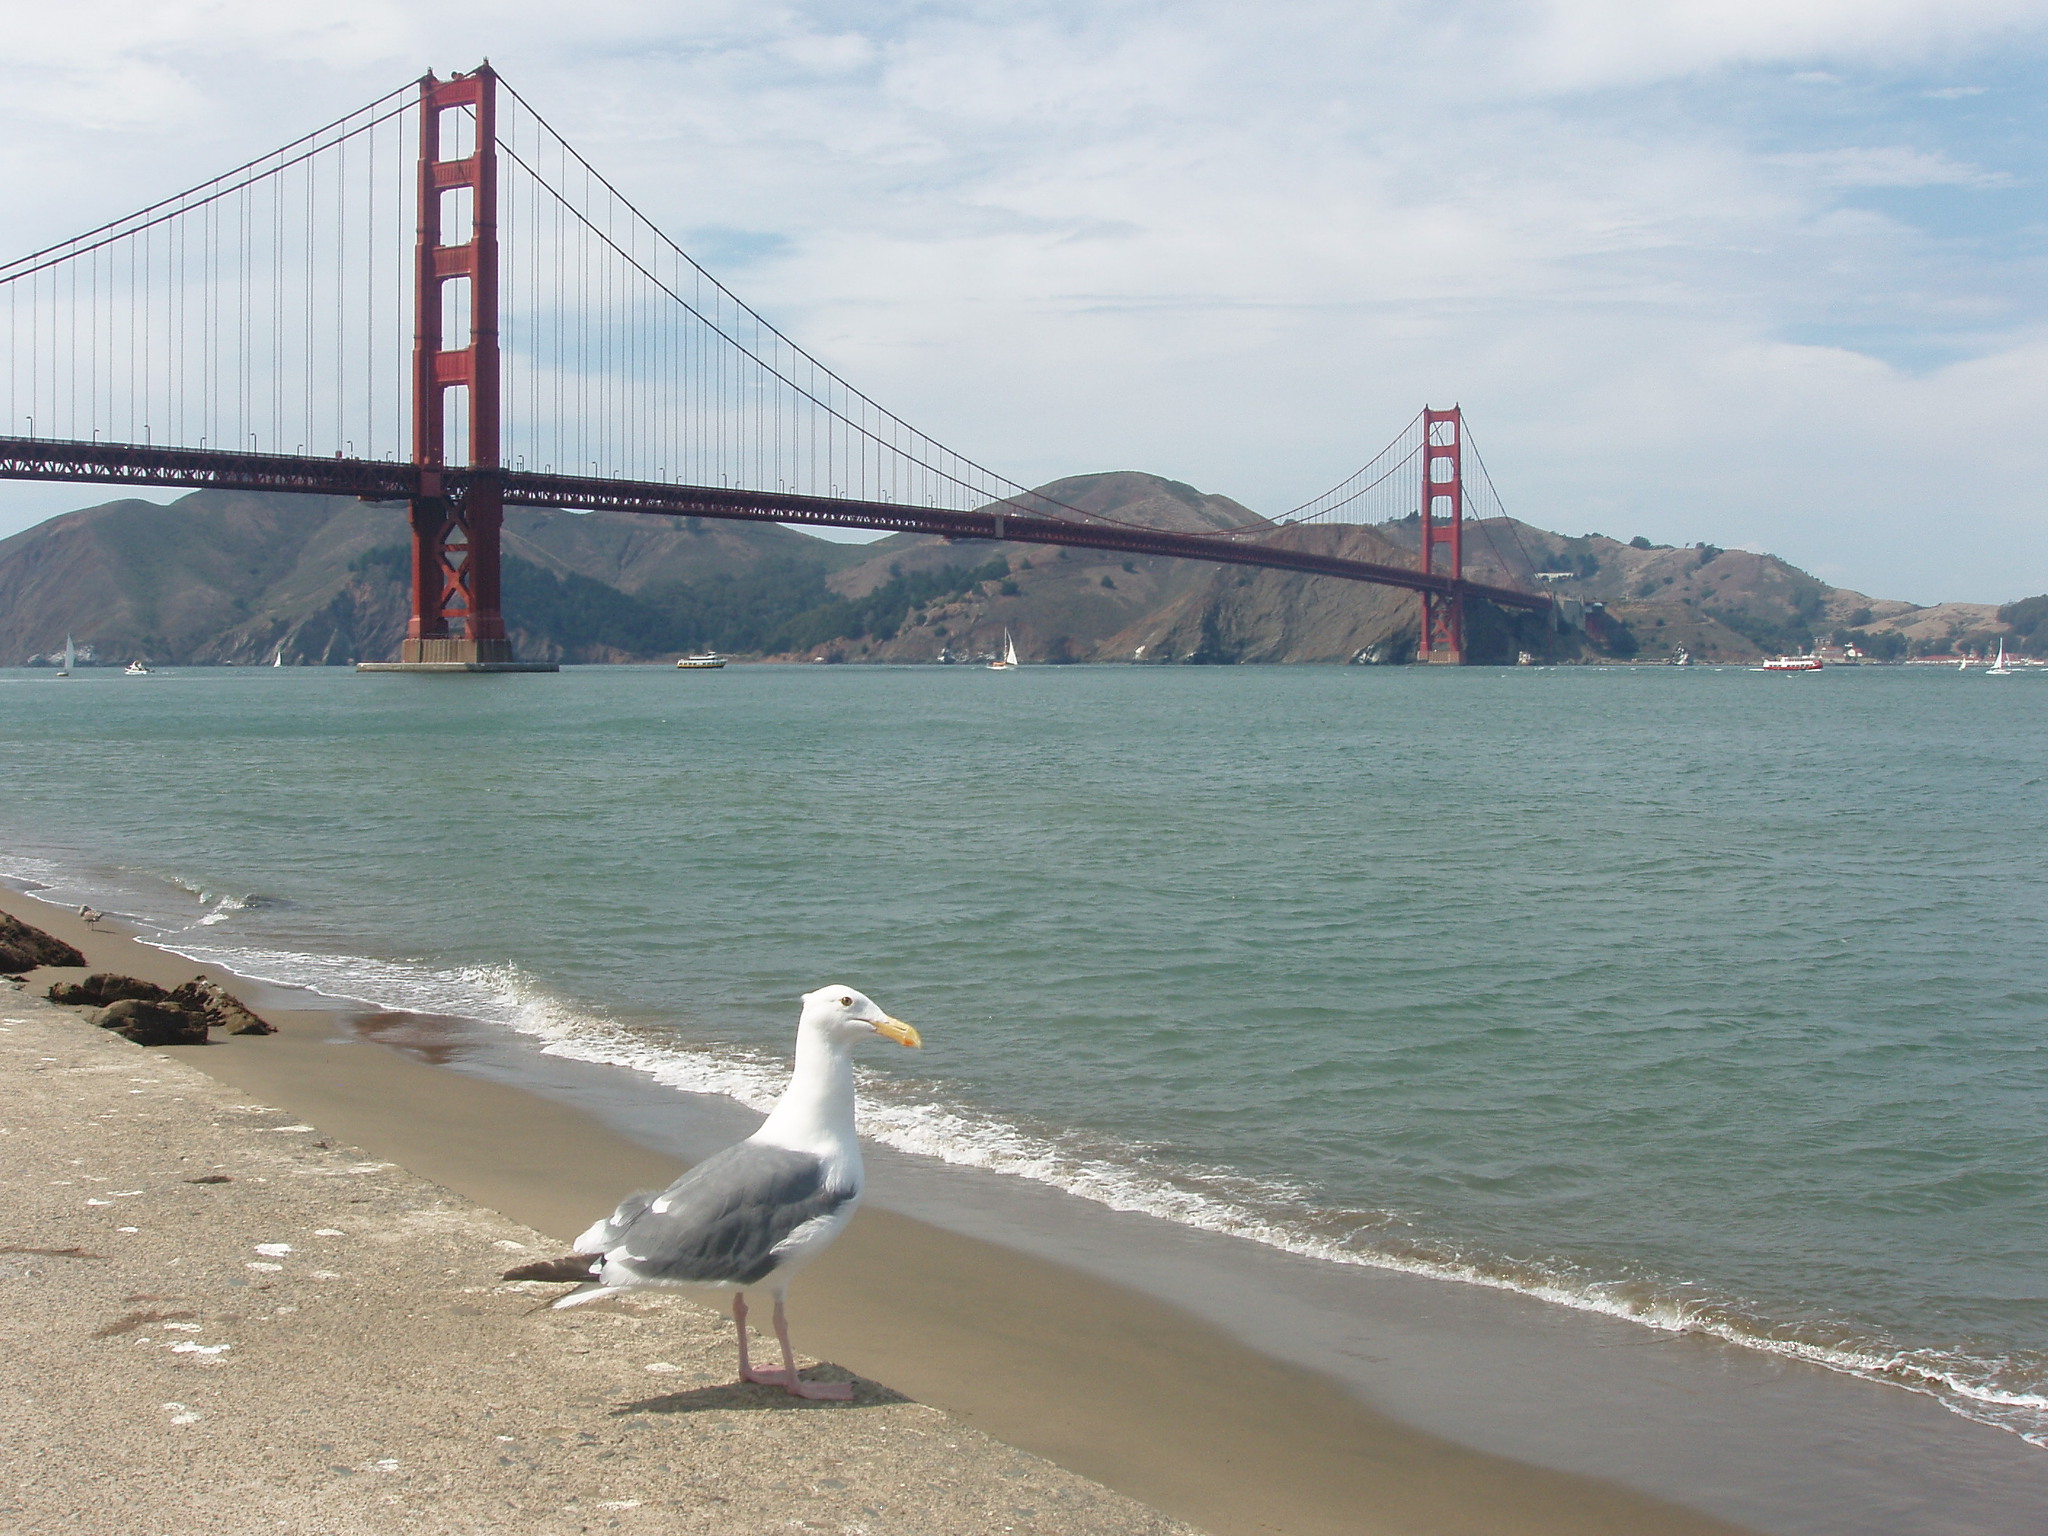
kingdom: Animalia
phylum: Chordata
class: Aves
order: Charadriiformes
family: Laridae
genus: Larus
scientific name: Larus occidentalis
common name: Western gull
